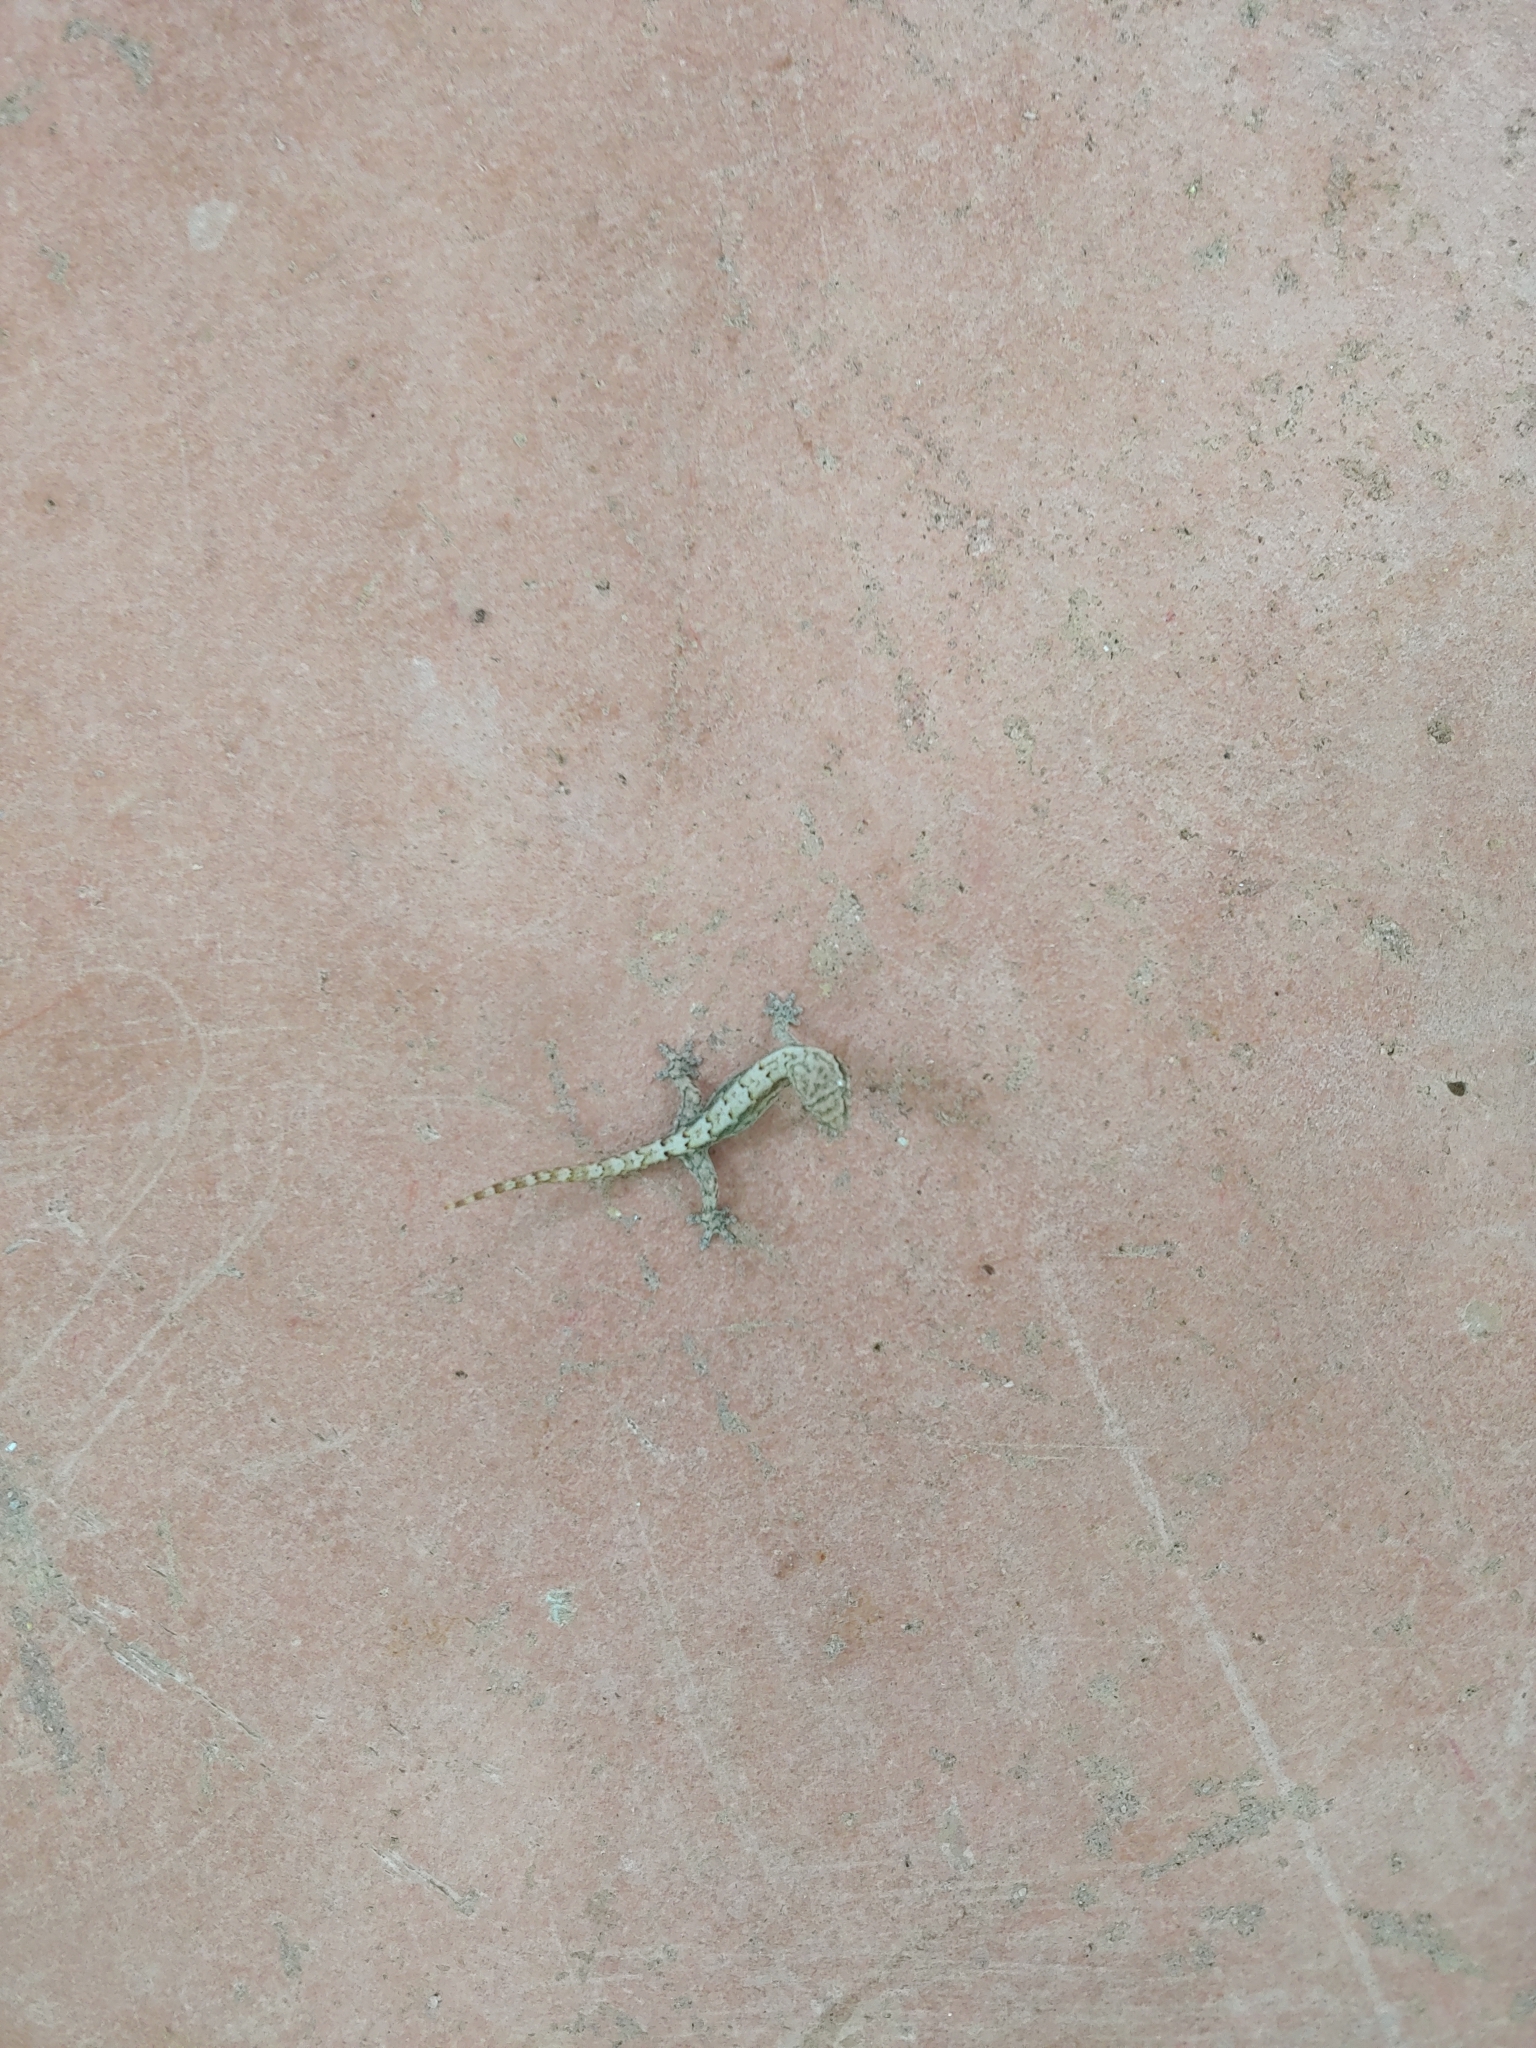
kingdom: Animalia
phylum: Chordata
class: Squamata
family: Gekkonidae
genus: Lepidodactylus
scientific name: Lepidodactylus lugubris
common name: Mourning gecko
